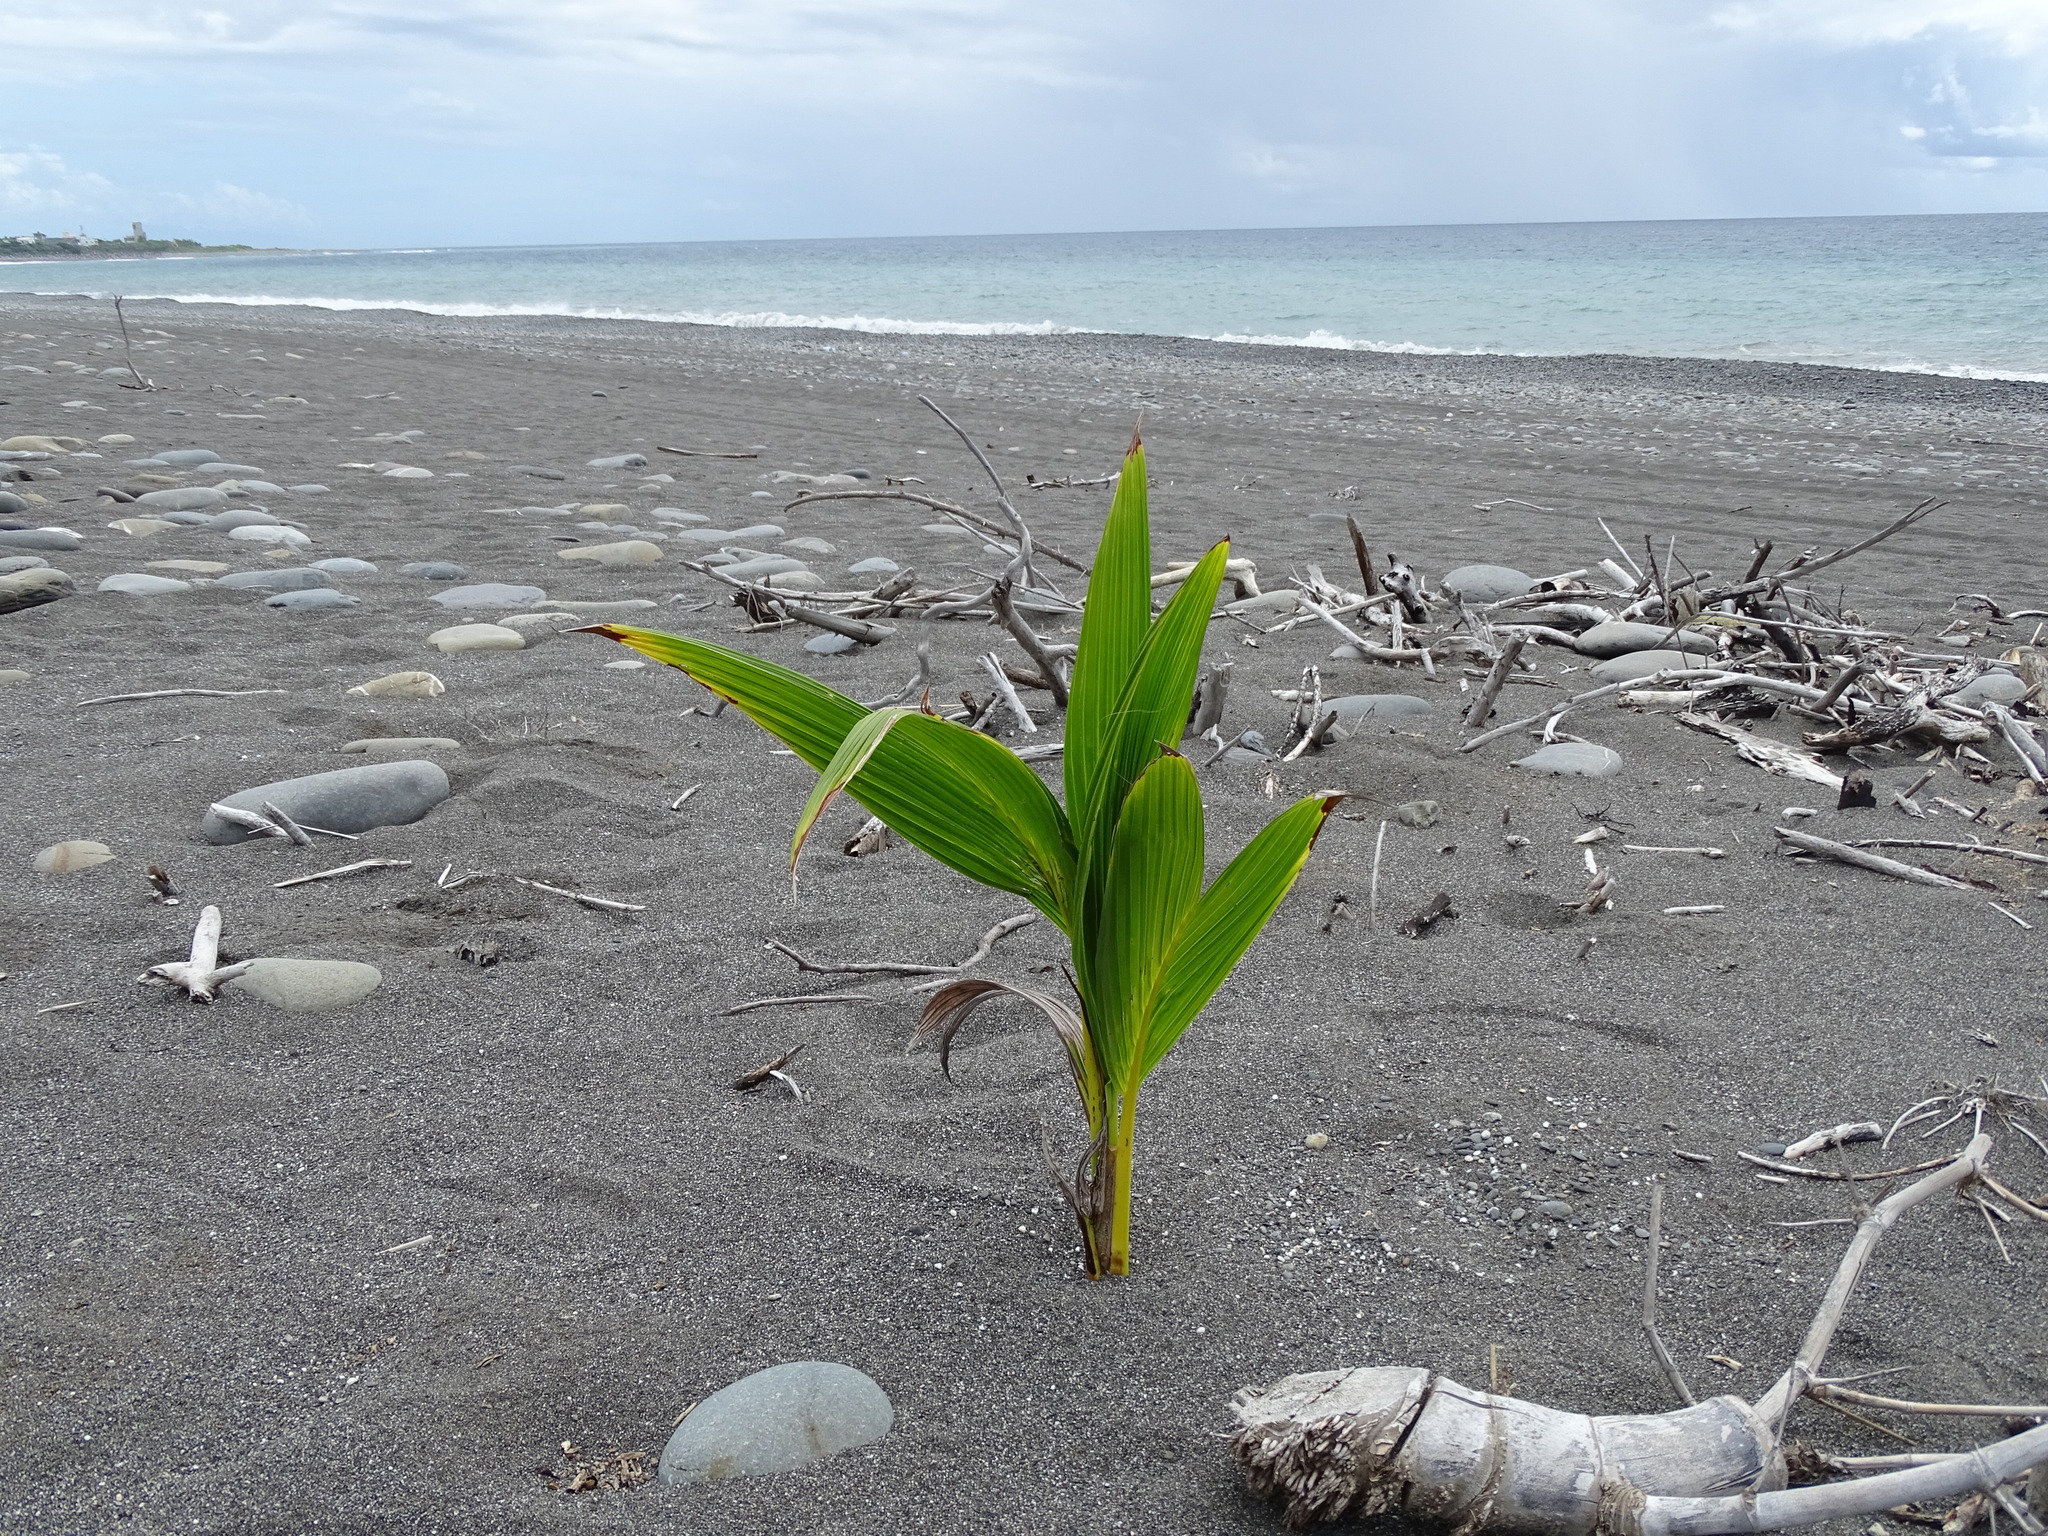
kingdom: Plantae
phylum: Tracheophyta
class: Liliopsida
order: Arecales
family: Arecaceae
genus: Cocos
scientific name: Cocos nucifera
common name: Coconut palm
